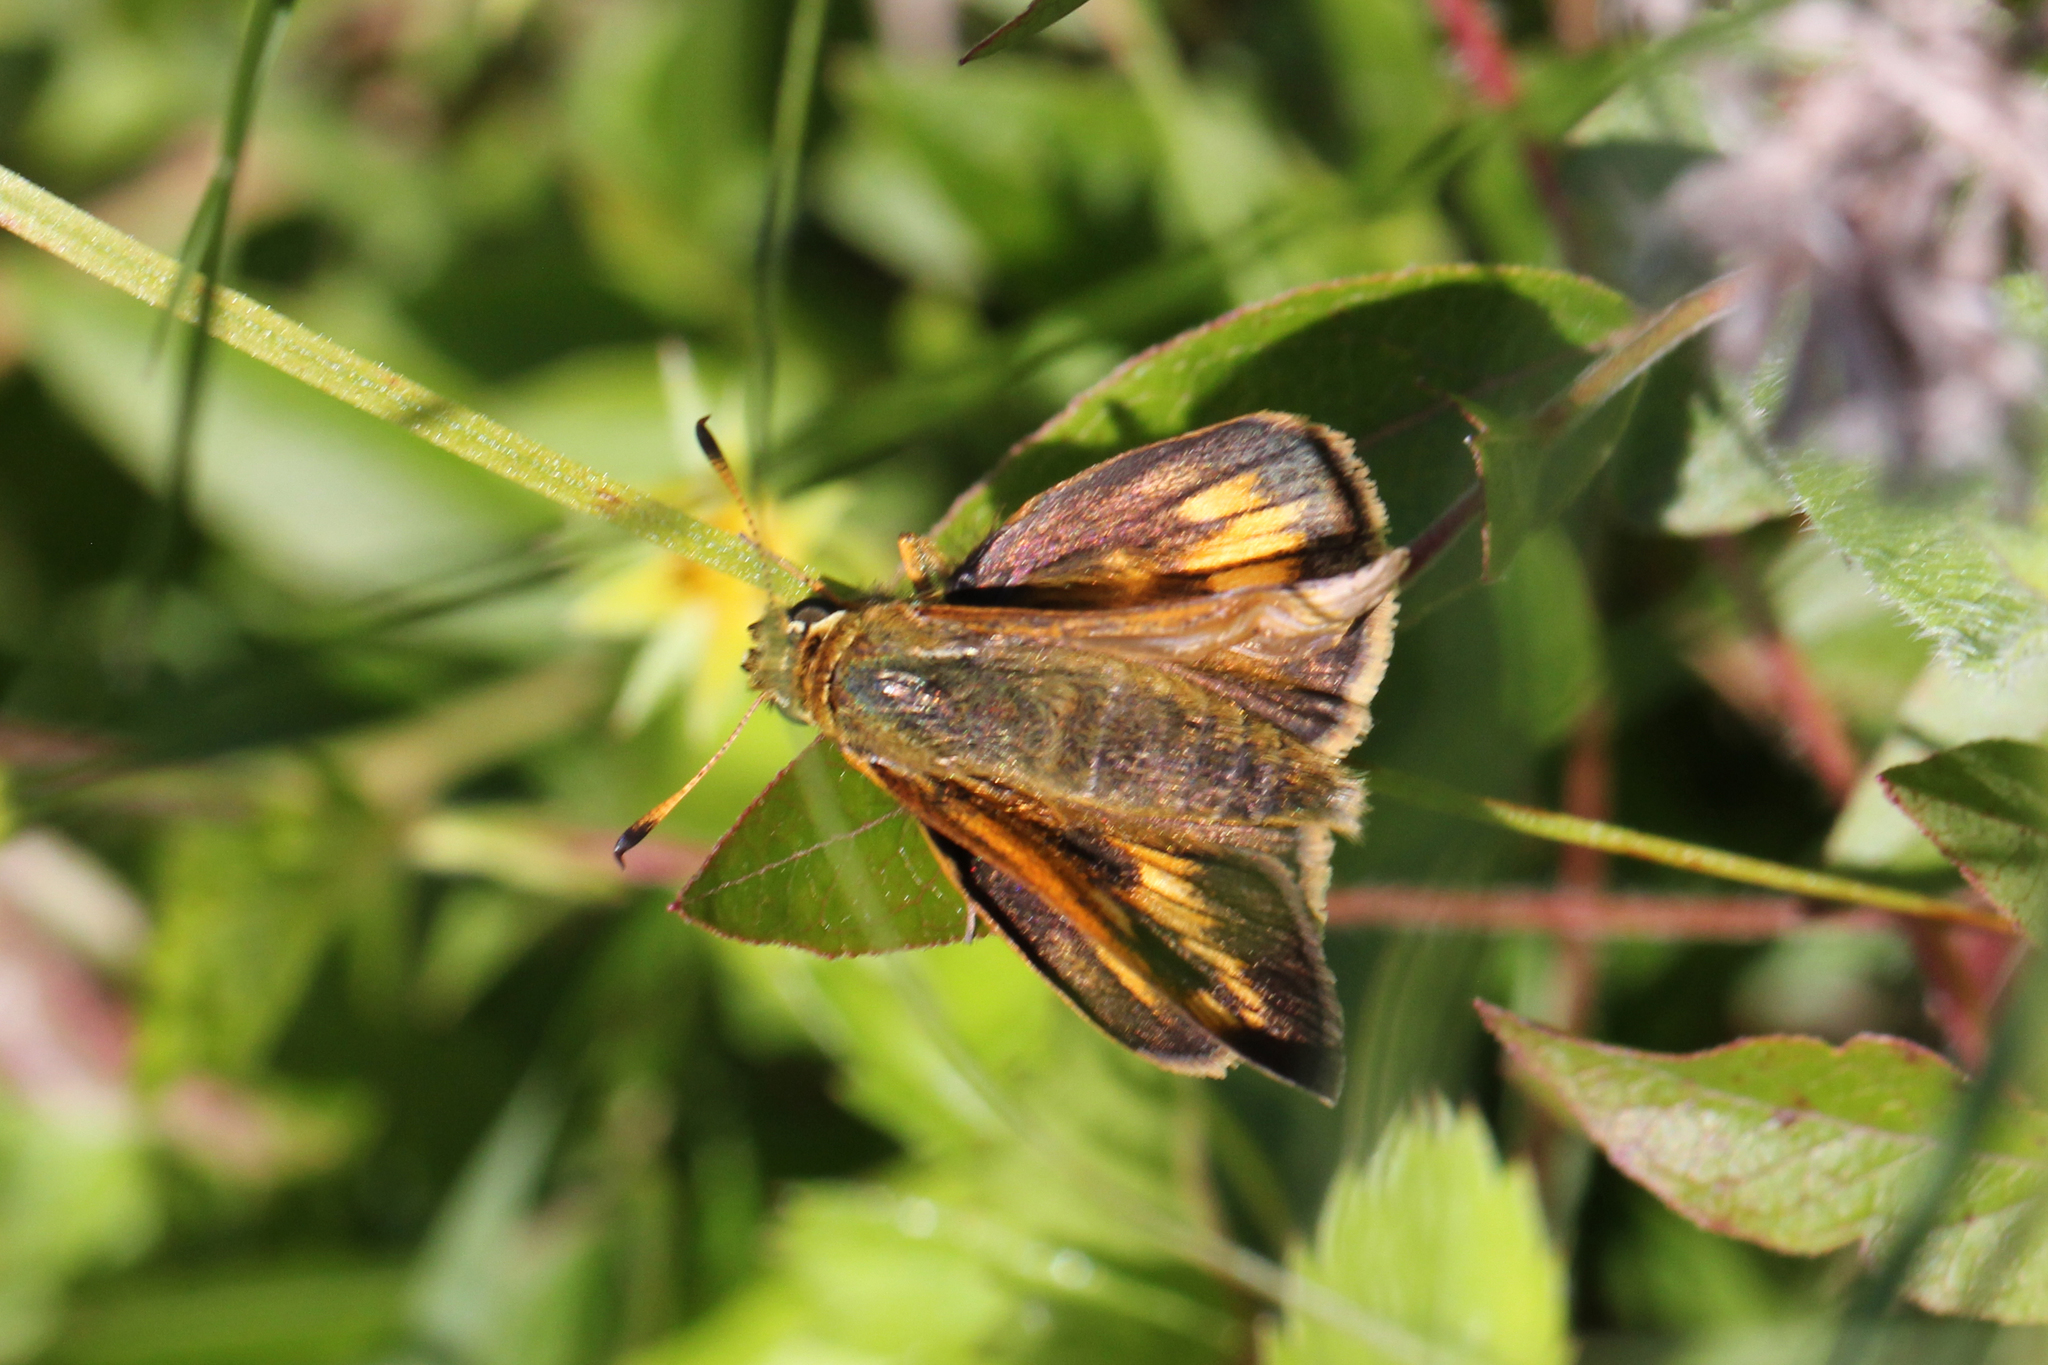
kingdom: Animalia
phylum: Arthropoda
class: Insecta
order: Lepidoptera
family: Hesperiidae
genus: Polites
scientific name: Polites mystic
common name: Long dash
